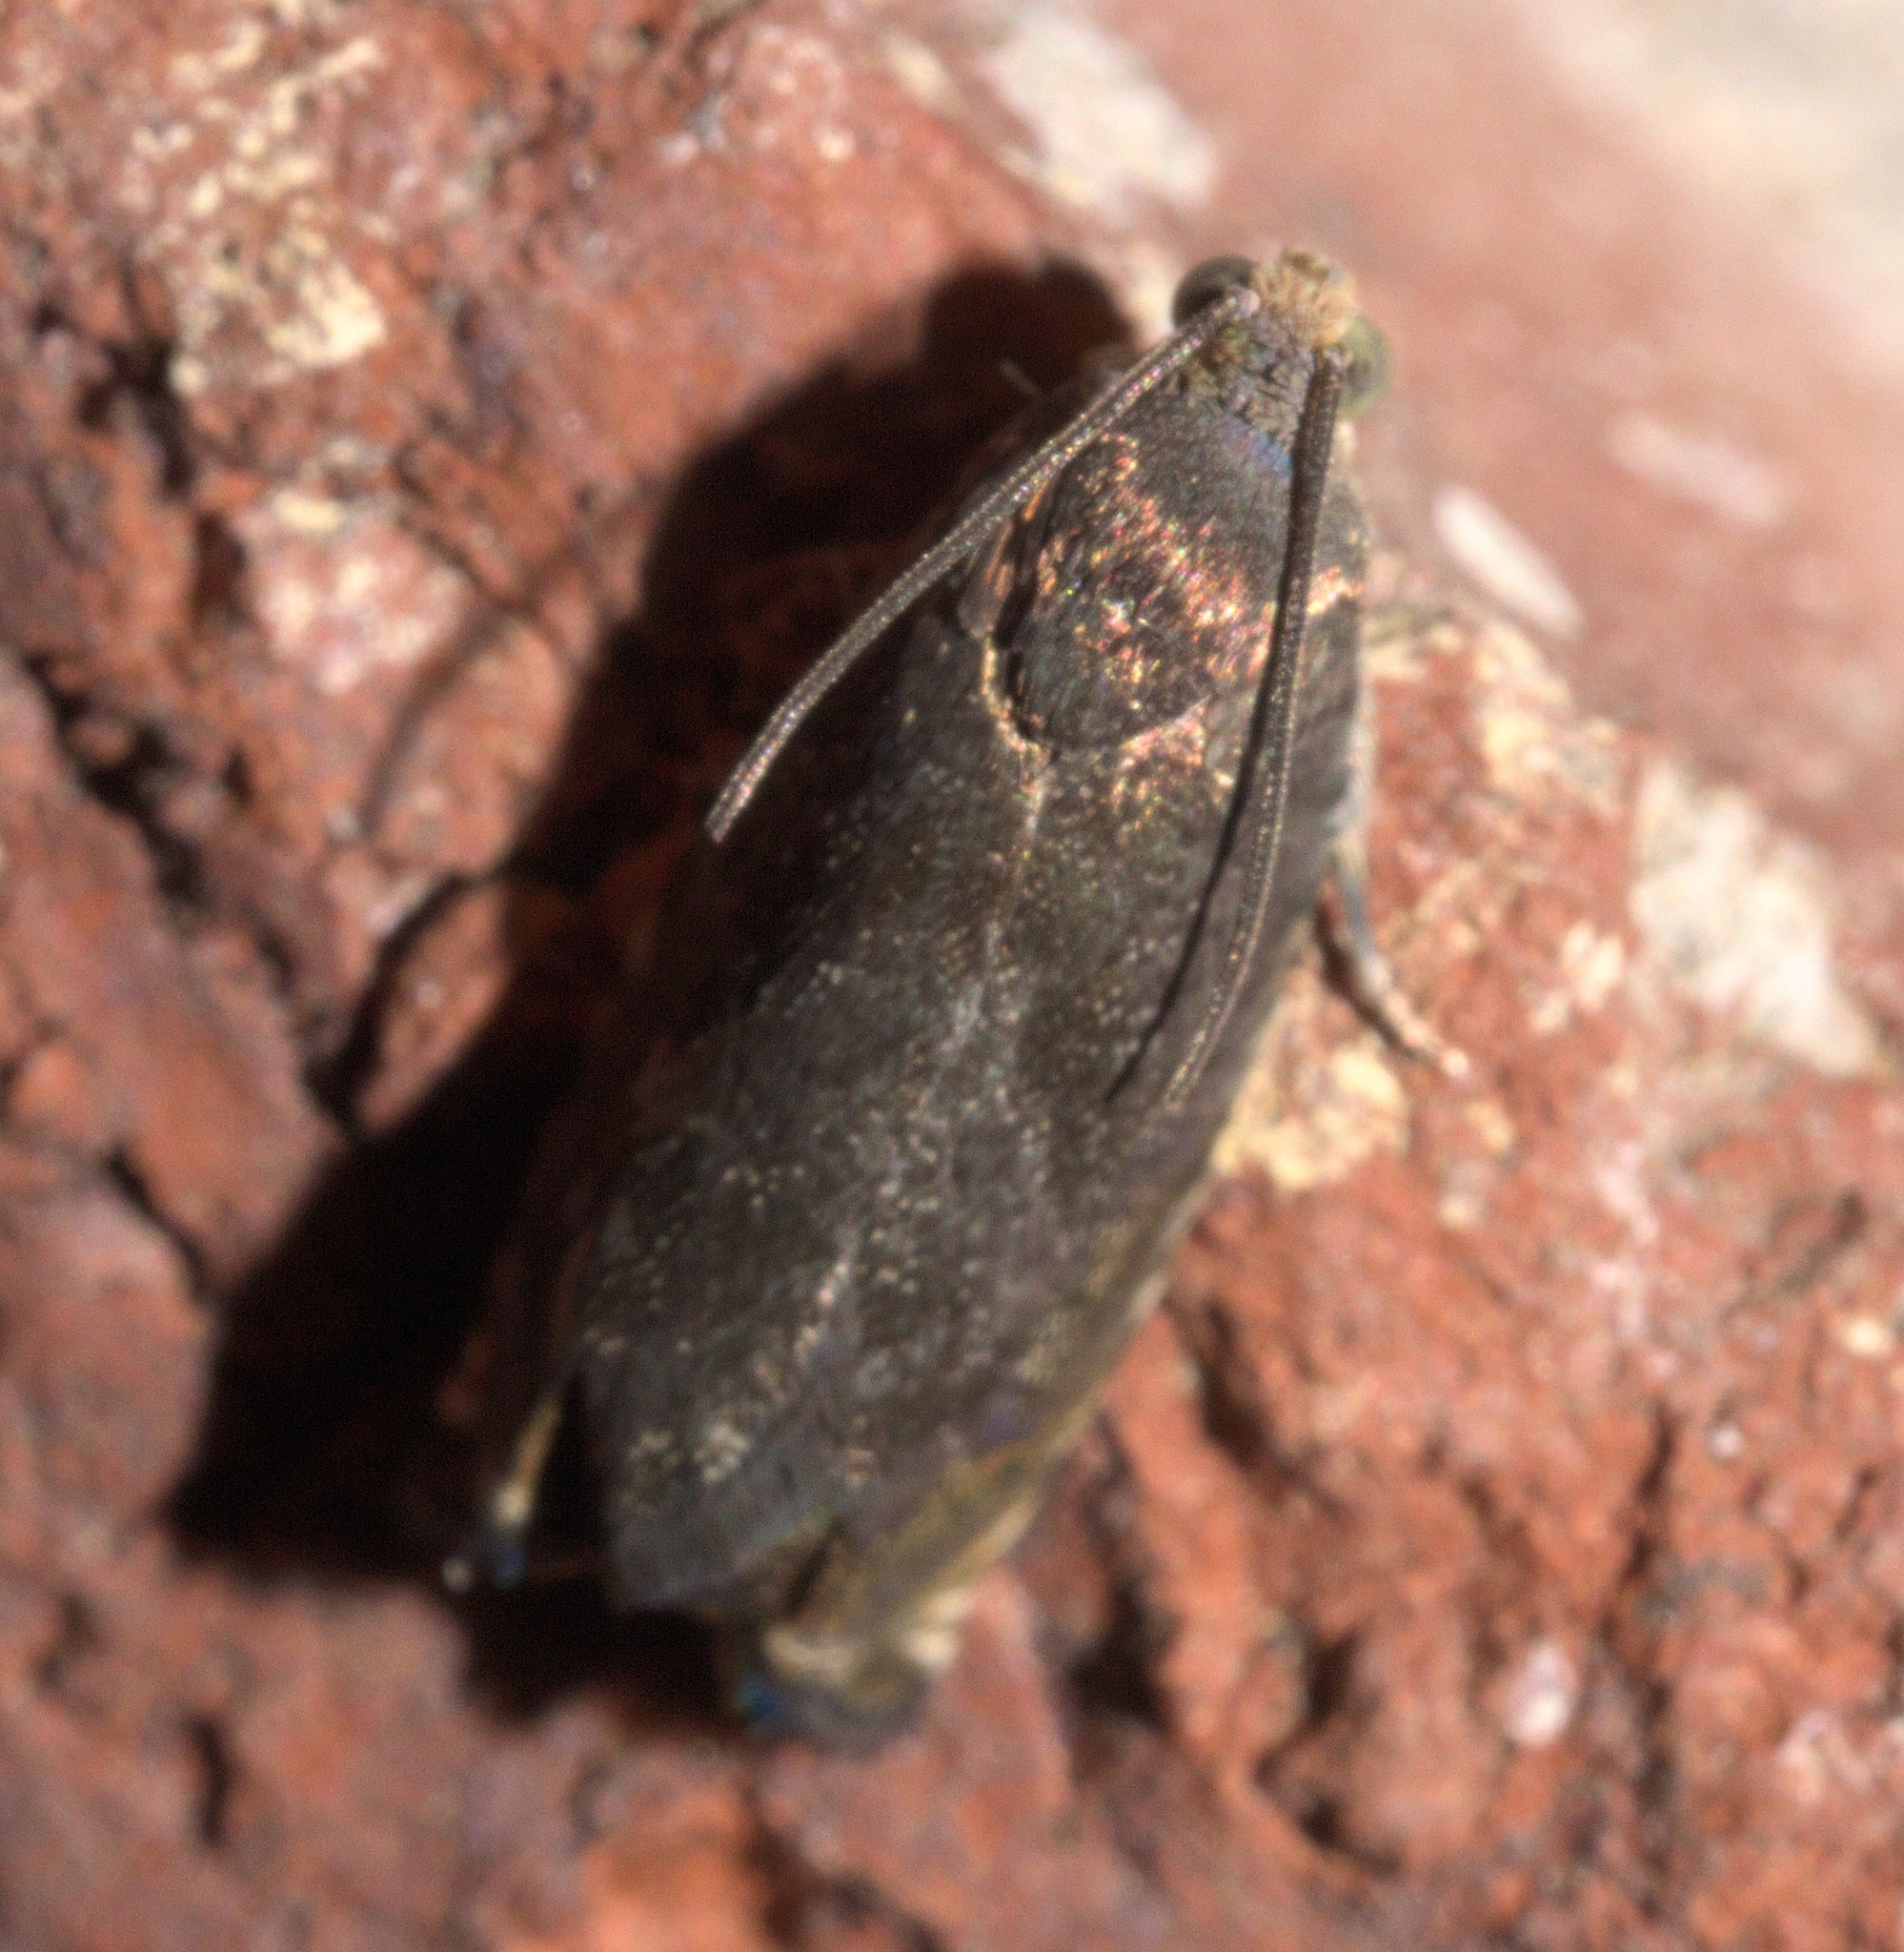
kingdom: Animalia
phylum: Arthropoda
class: Insecta
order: Lepidoptera
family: Tortricidae
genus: Cydia
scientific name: Cydia caryana
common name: Hickory shuckworm moth
